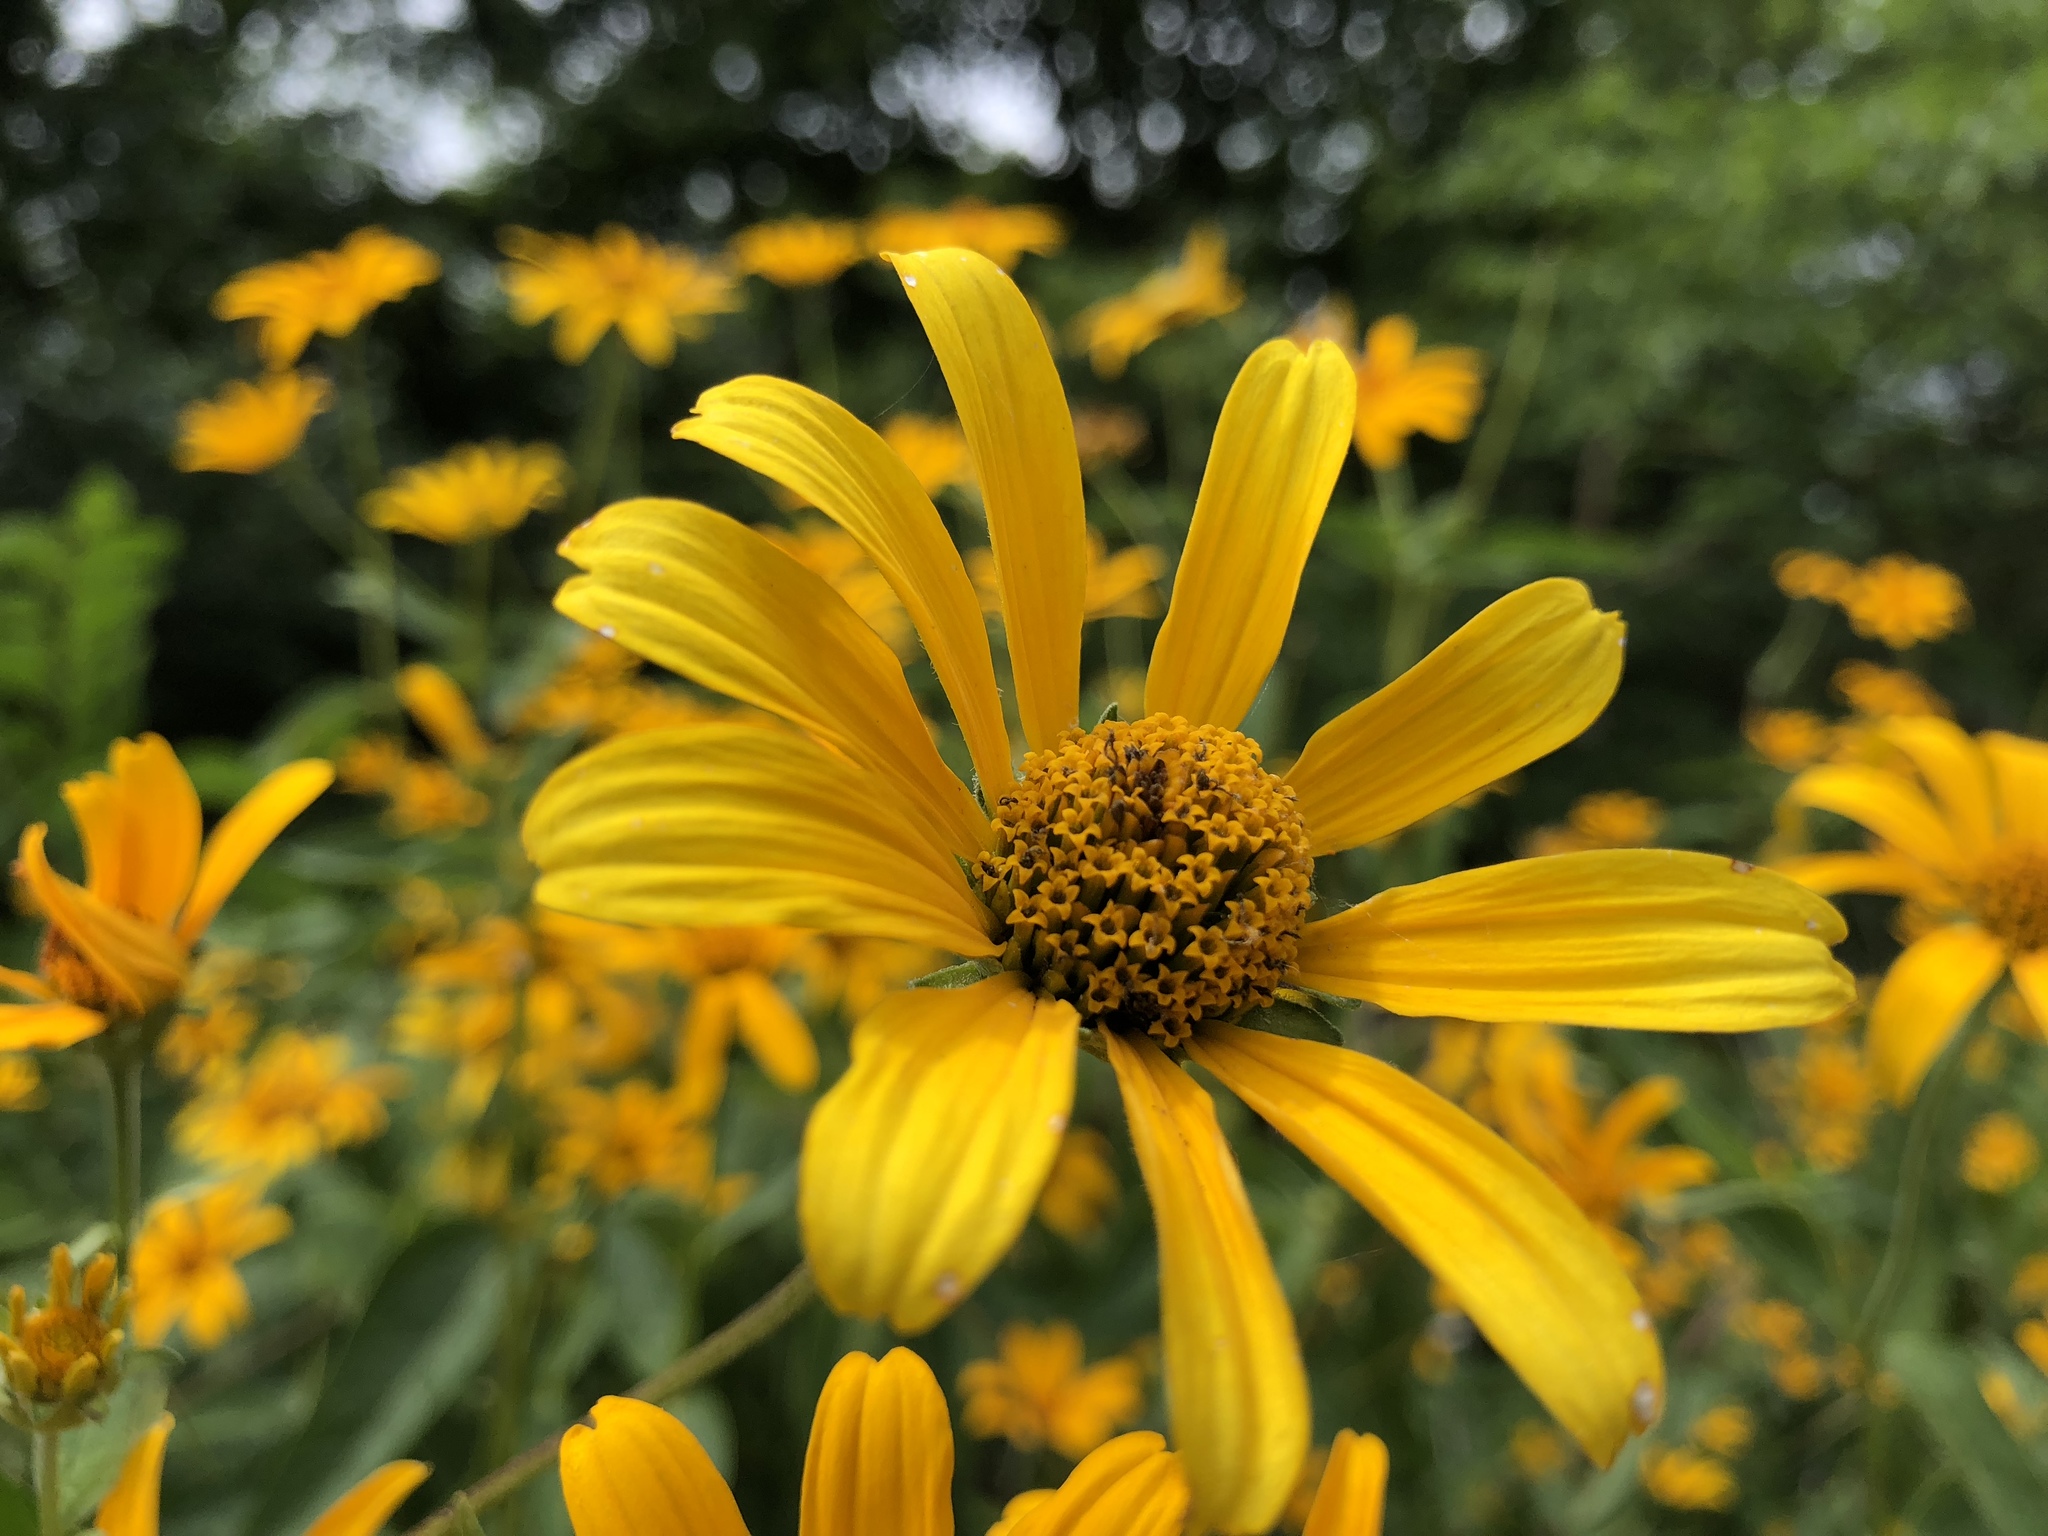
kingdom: Plantae
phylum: Tracheophyta
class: Magnoliopsida
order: Asterales
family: Asteraceae
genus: Heliopsis
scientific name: Heliopsis helianthoides
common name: False sunflower
